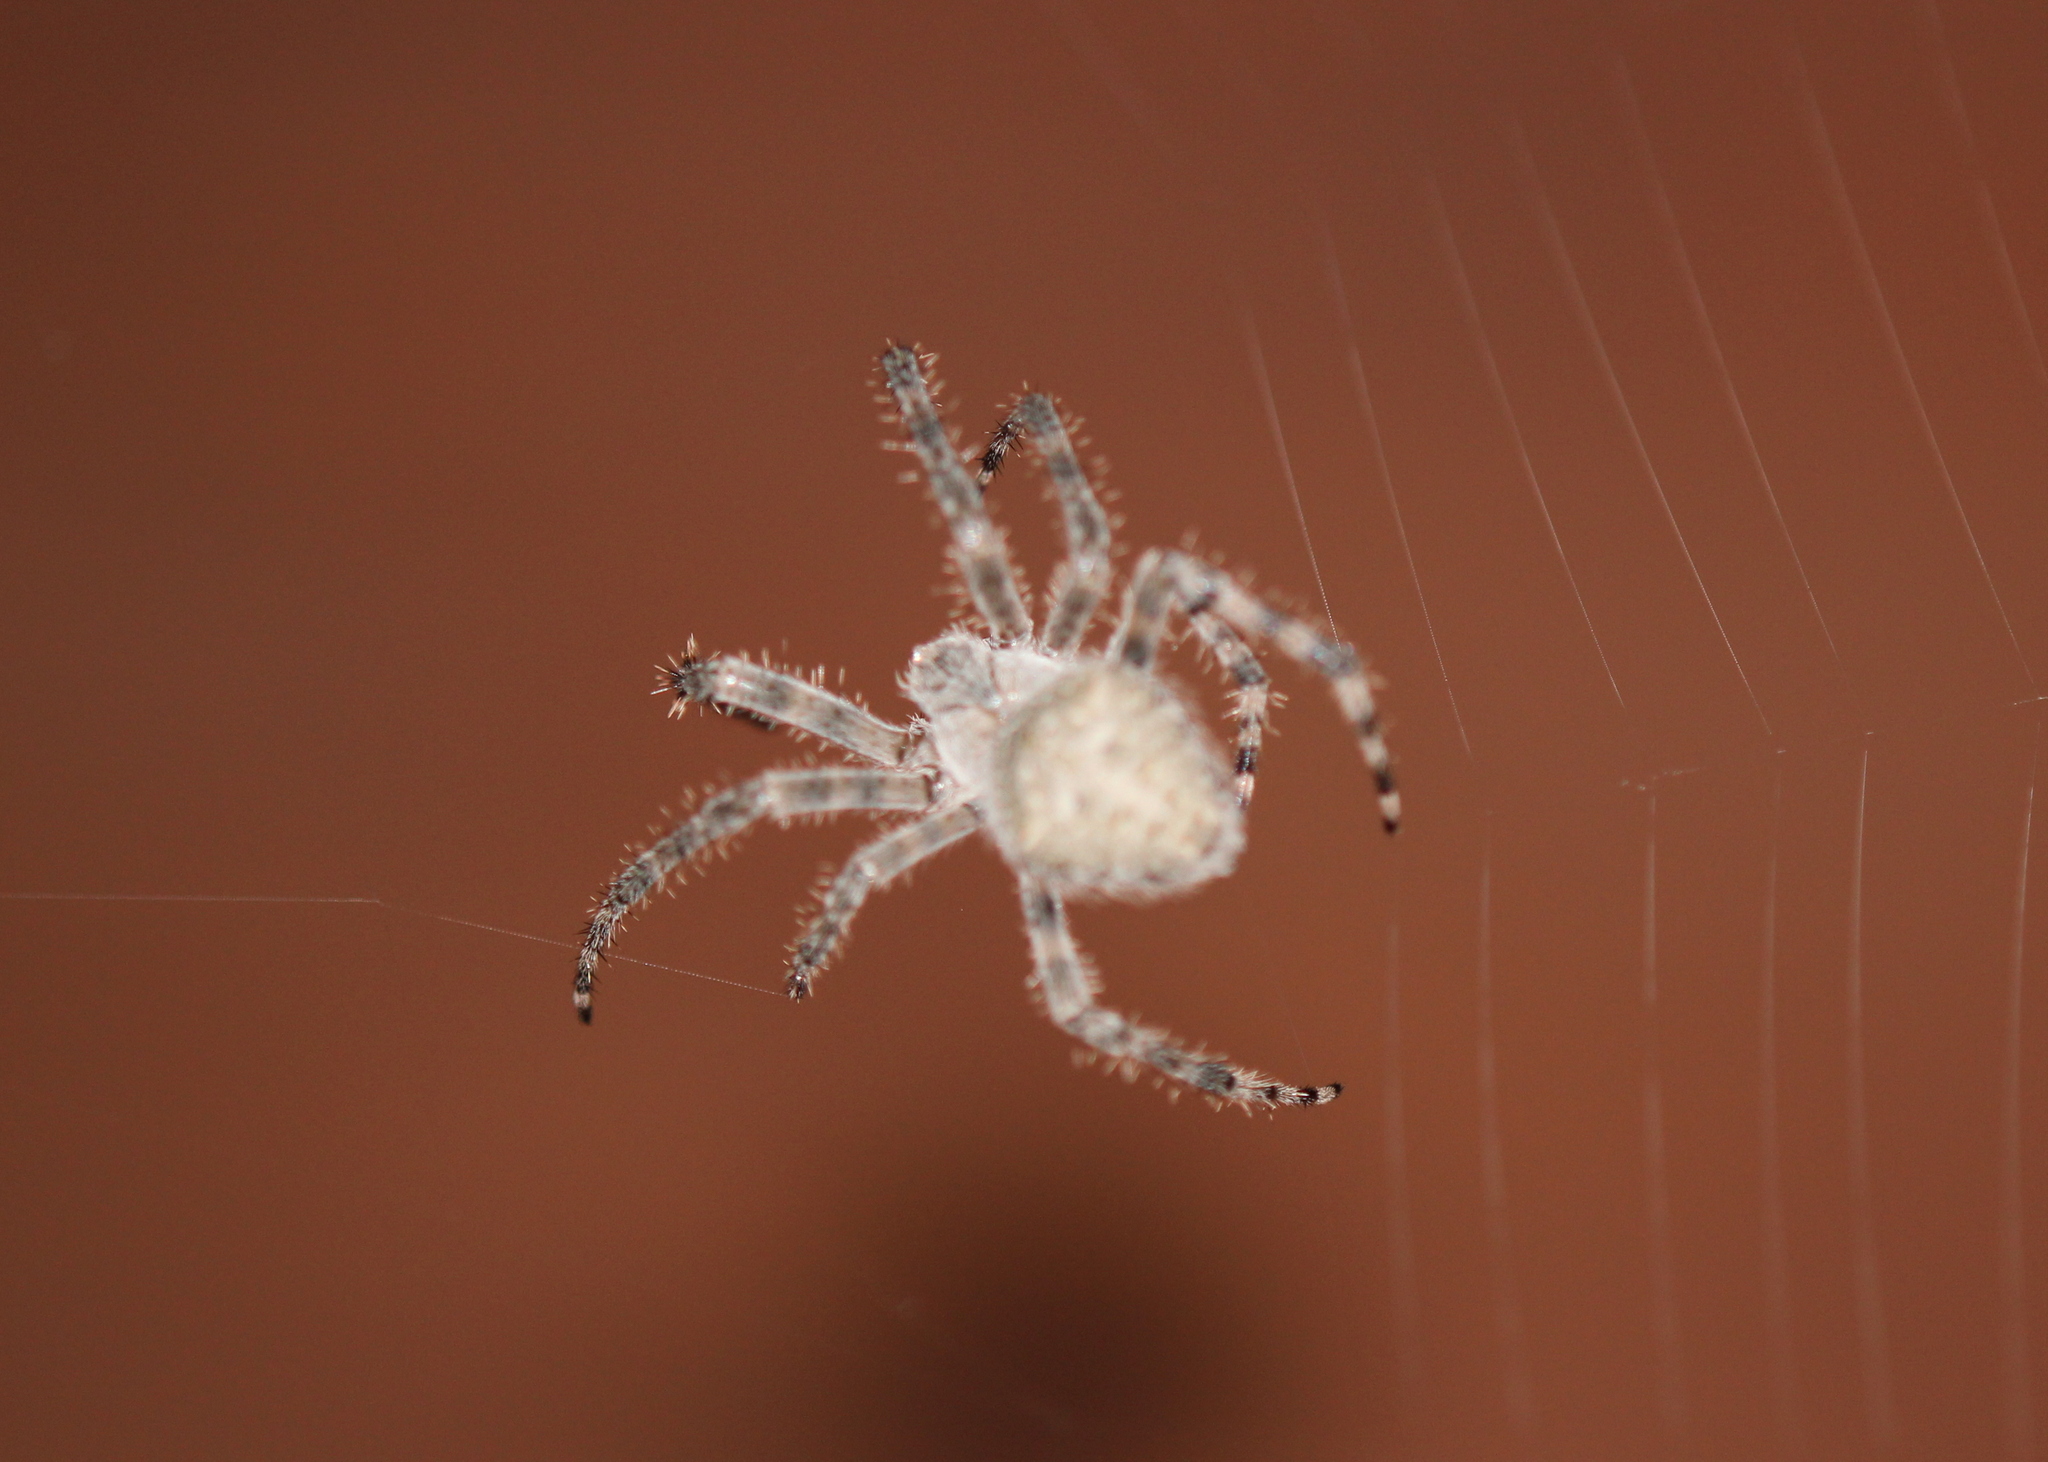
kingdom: Animalia
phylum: Arthropoda
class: Arachnida
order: Araneae
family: Araneidae
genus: Araneus
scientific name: Araneus cavaticus
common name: Barn orbweaver
